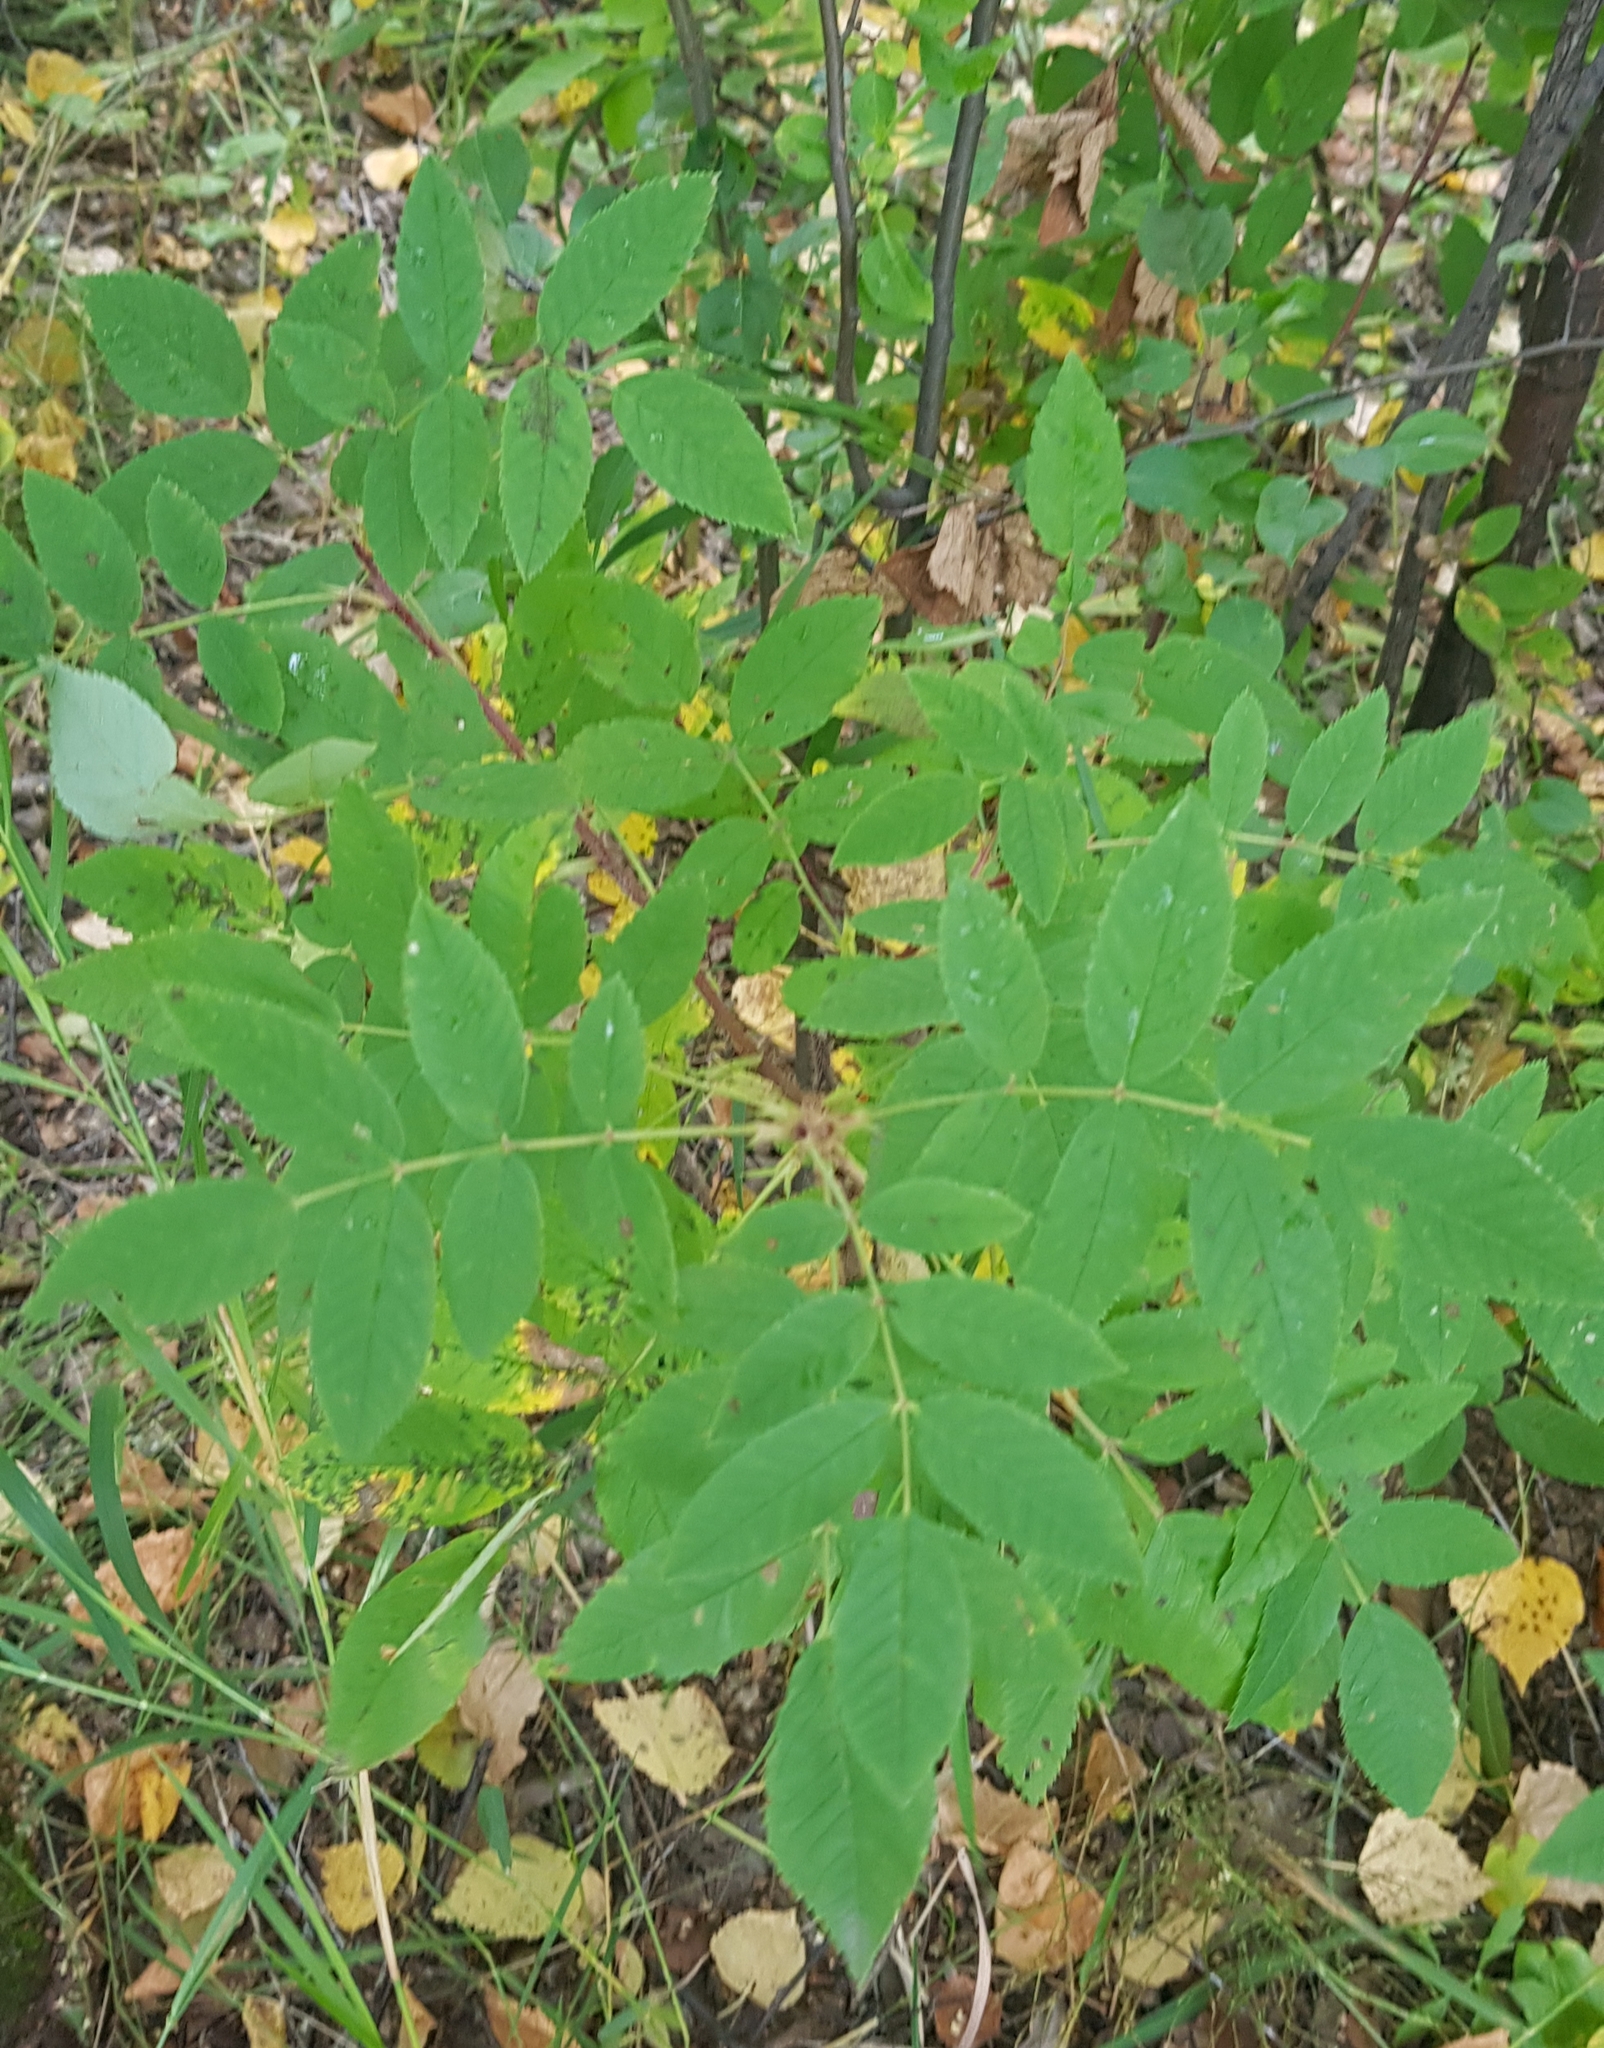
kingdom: Plantae
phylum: Tracheophyta
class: Magnoliopsida
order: Rosales
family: Rosaceae
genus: Sorbaria
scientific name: Sorbaria sorbifolia
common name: False spiraea
